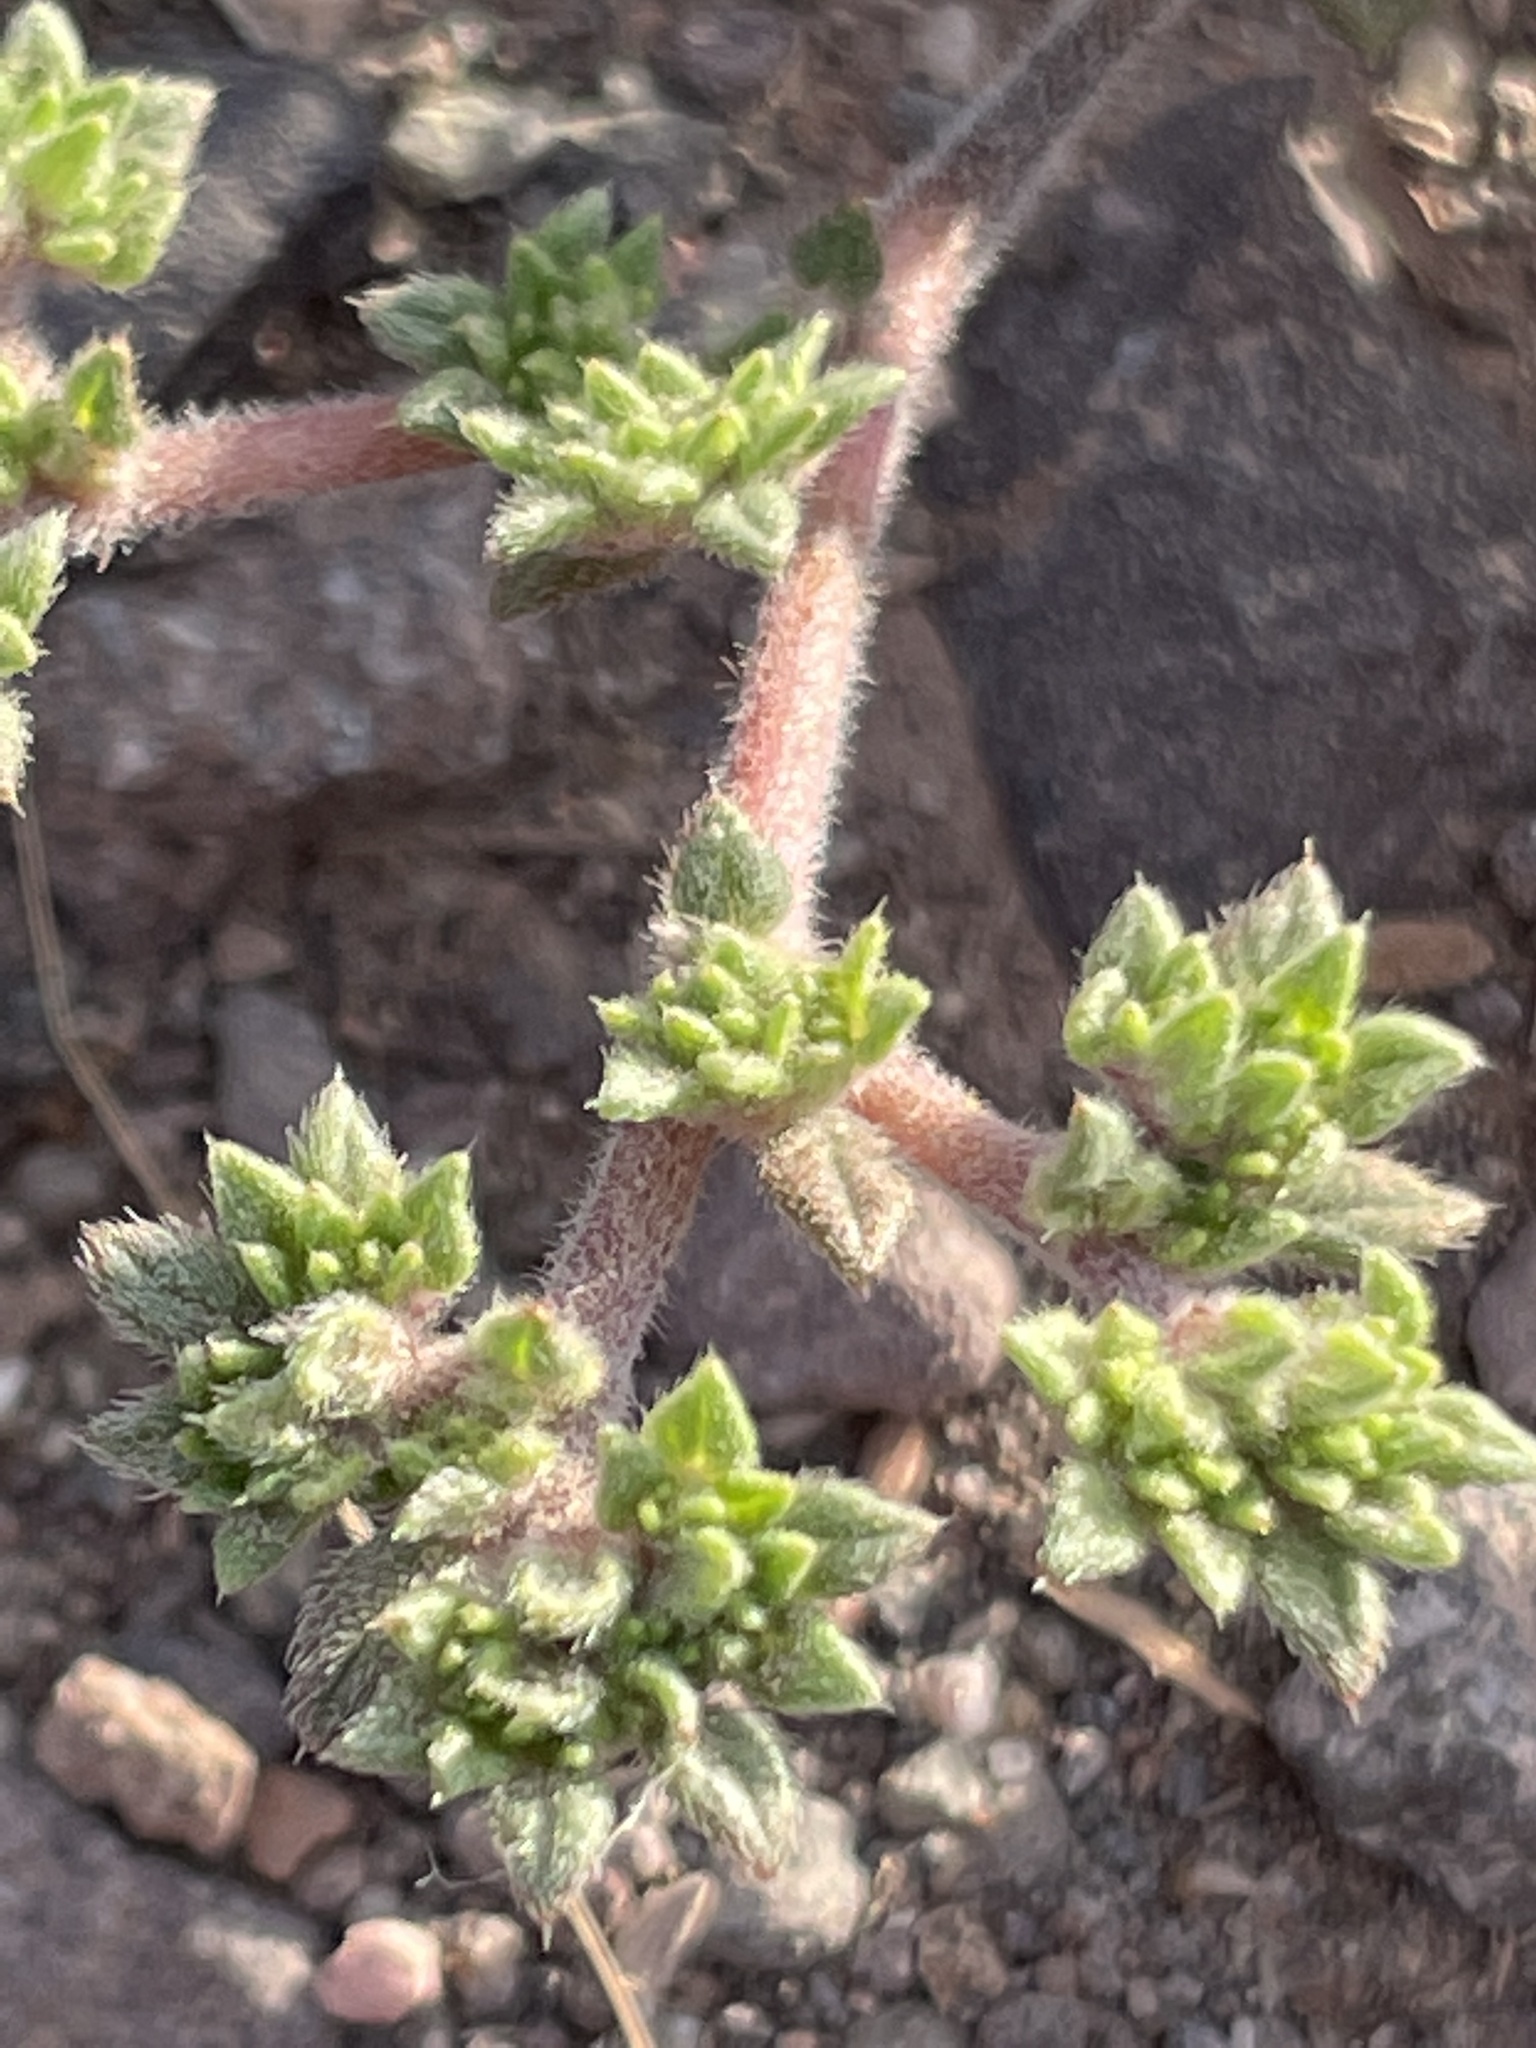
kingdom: Plantae
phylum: Tracheophyta
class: Magnoliopsida
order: Boraginales
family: Ehretiaceae
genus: Tiquilia
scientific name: Tiquilia cuspidata
